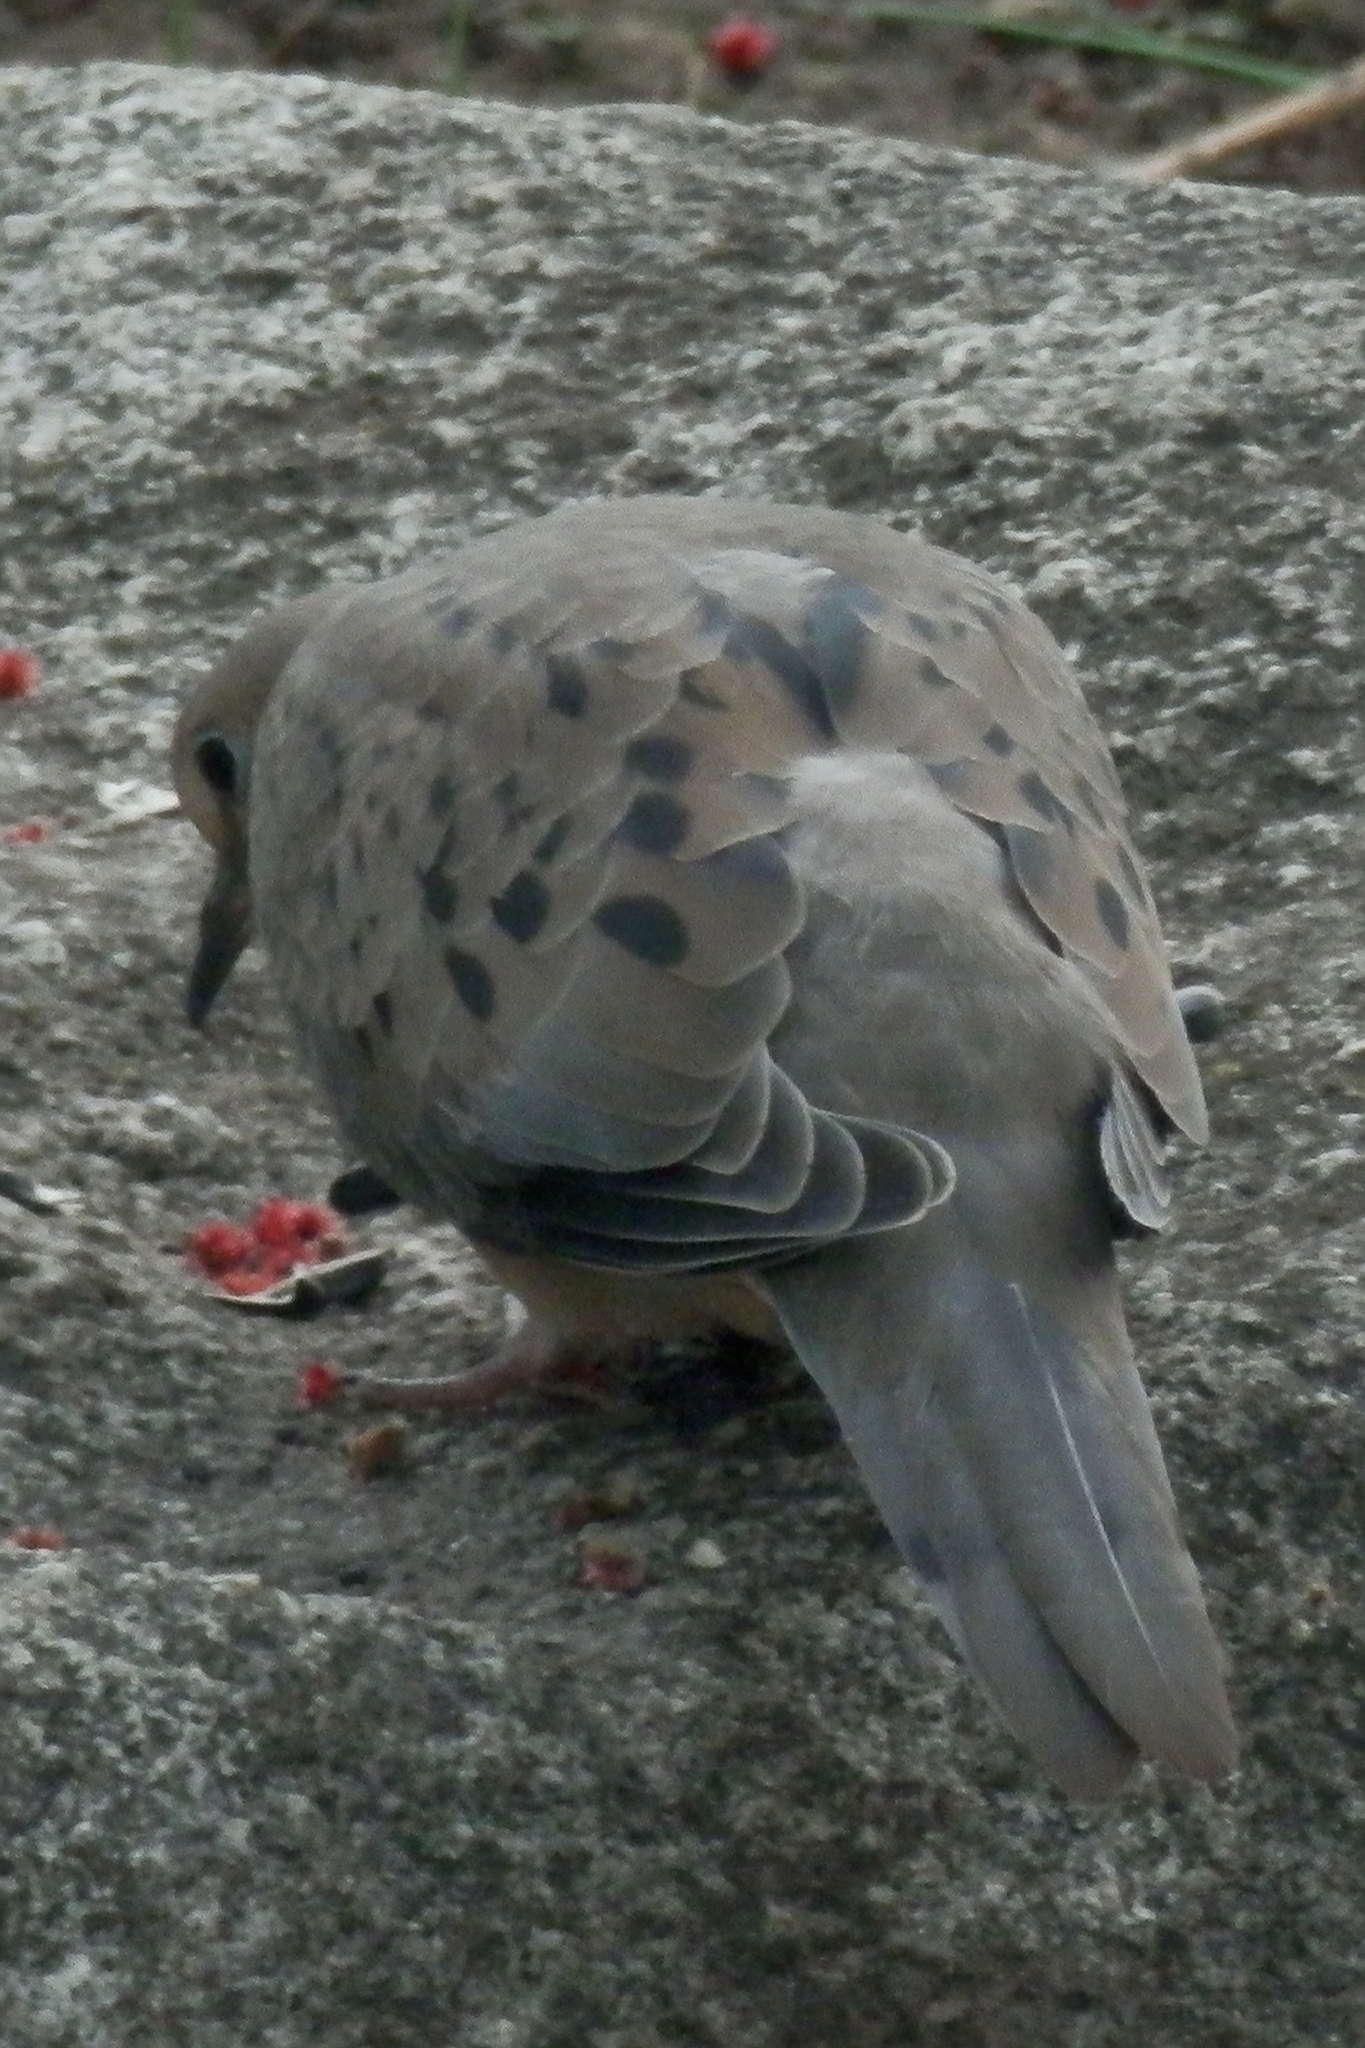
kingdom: Animalia
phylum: Chordata
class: Aves
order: Columbiformes
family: Columbidae
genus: Zenaida
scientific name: Zenaida macroura
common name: Mourning dove
